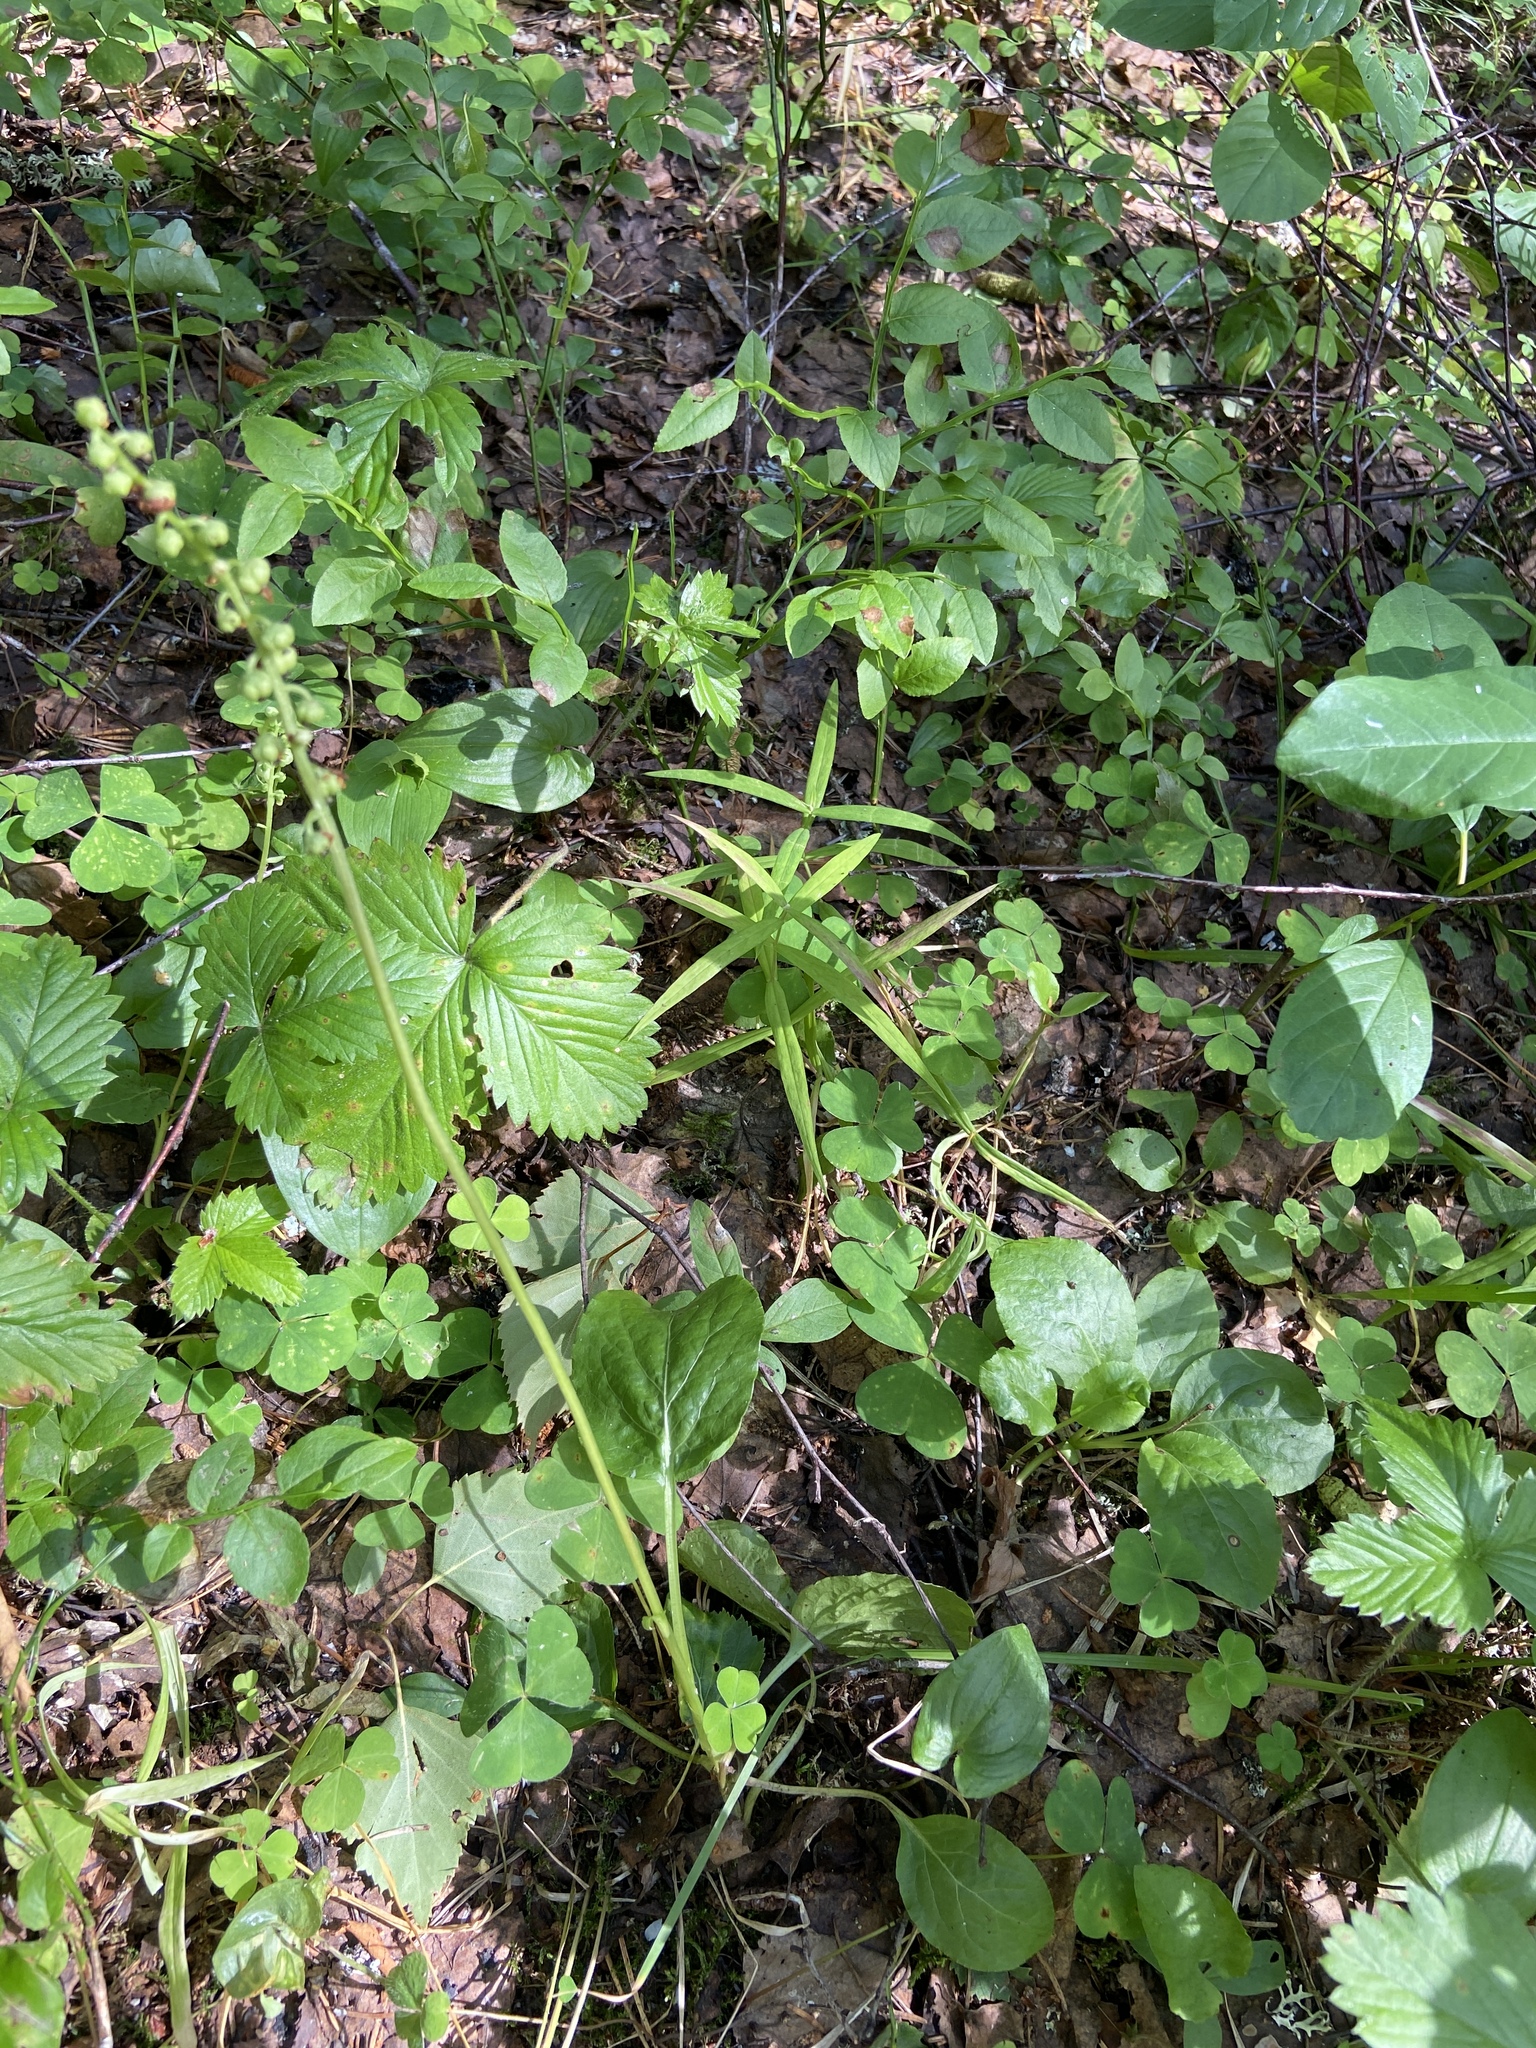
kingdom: Plantae
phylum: Tracheophyta
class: Magnoliopsida
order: Ericales
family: Ericaceae
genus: Pyrola
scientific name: Pyrola minor
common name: Common wintergreen
